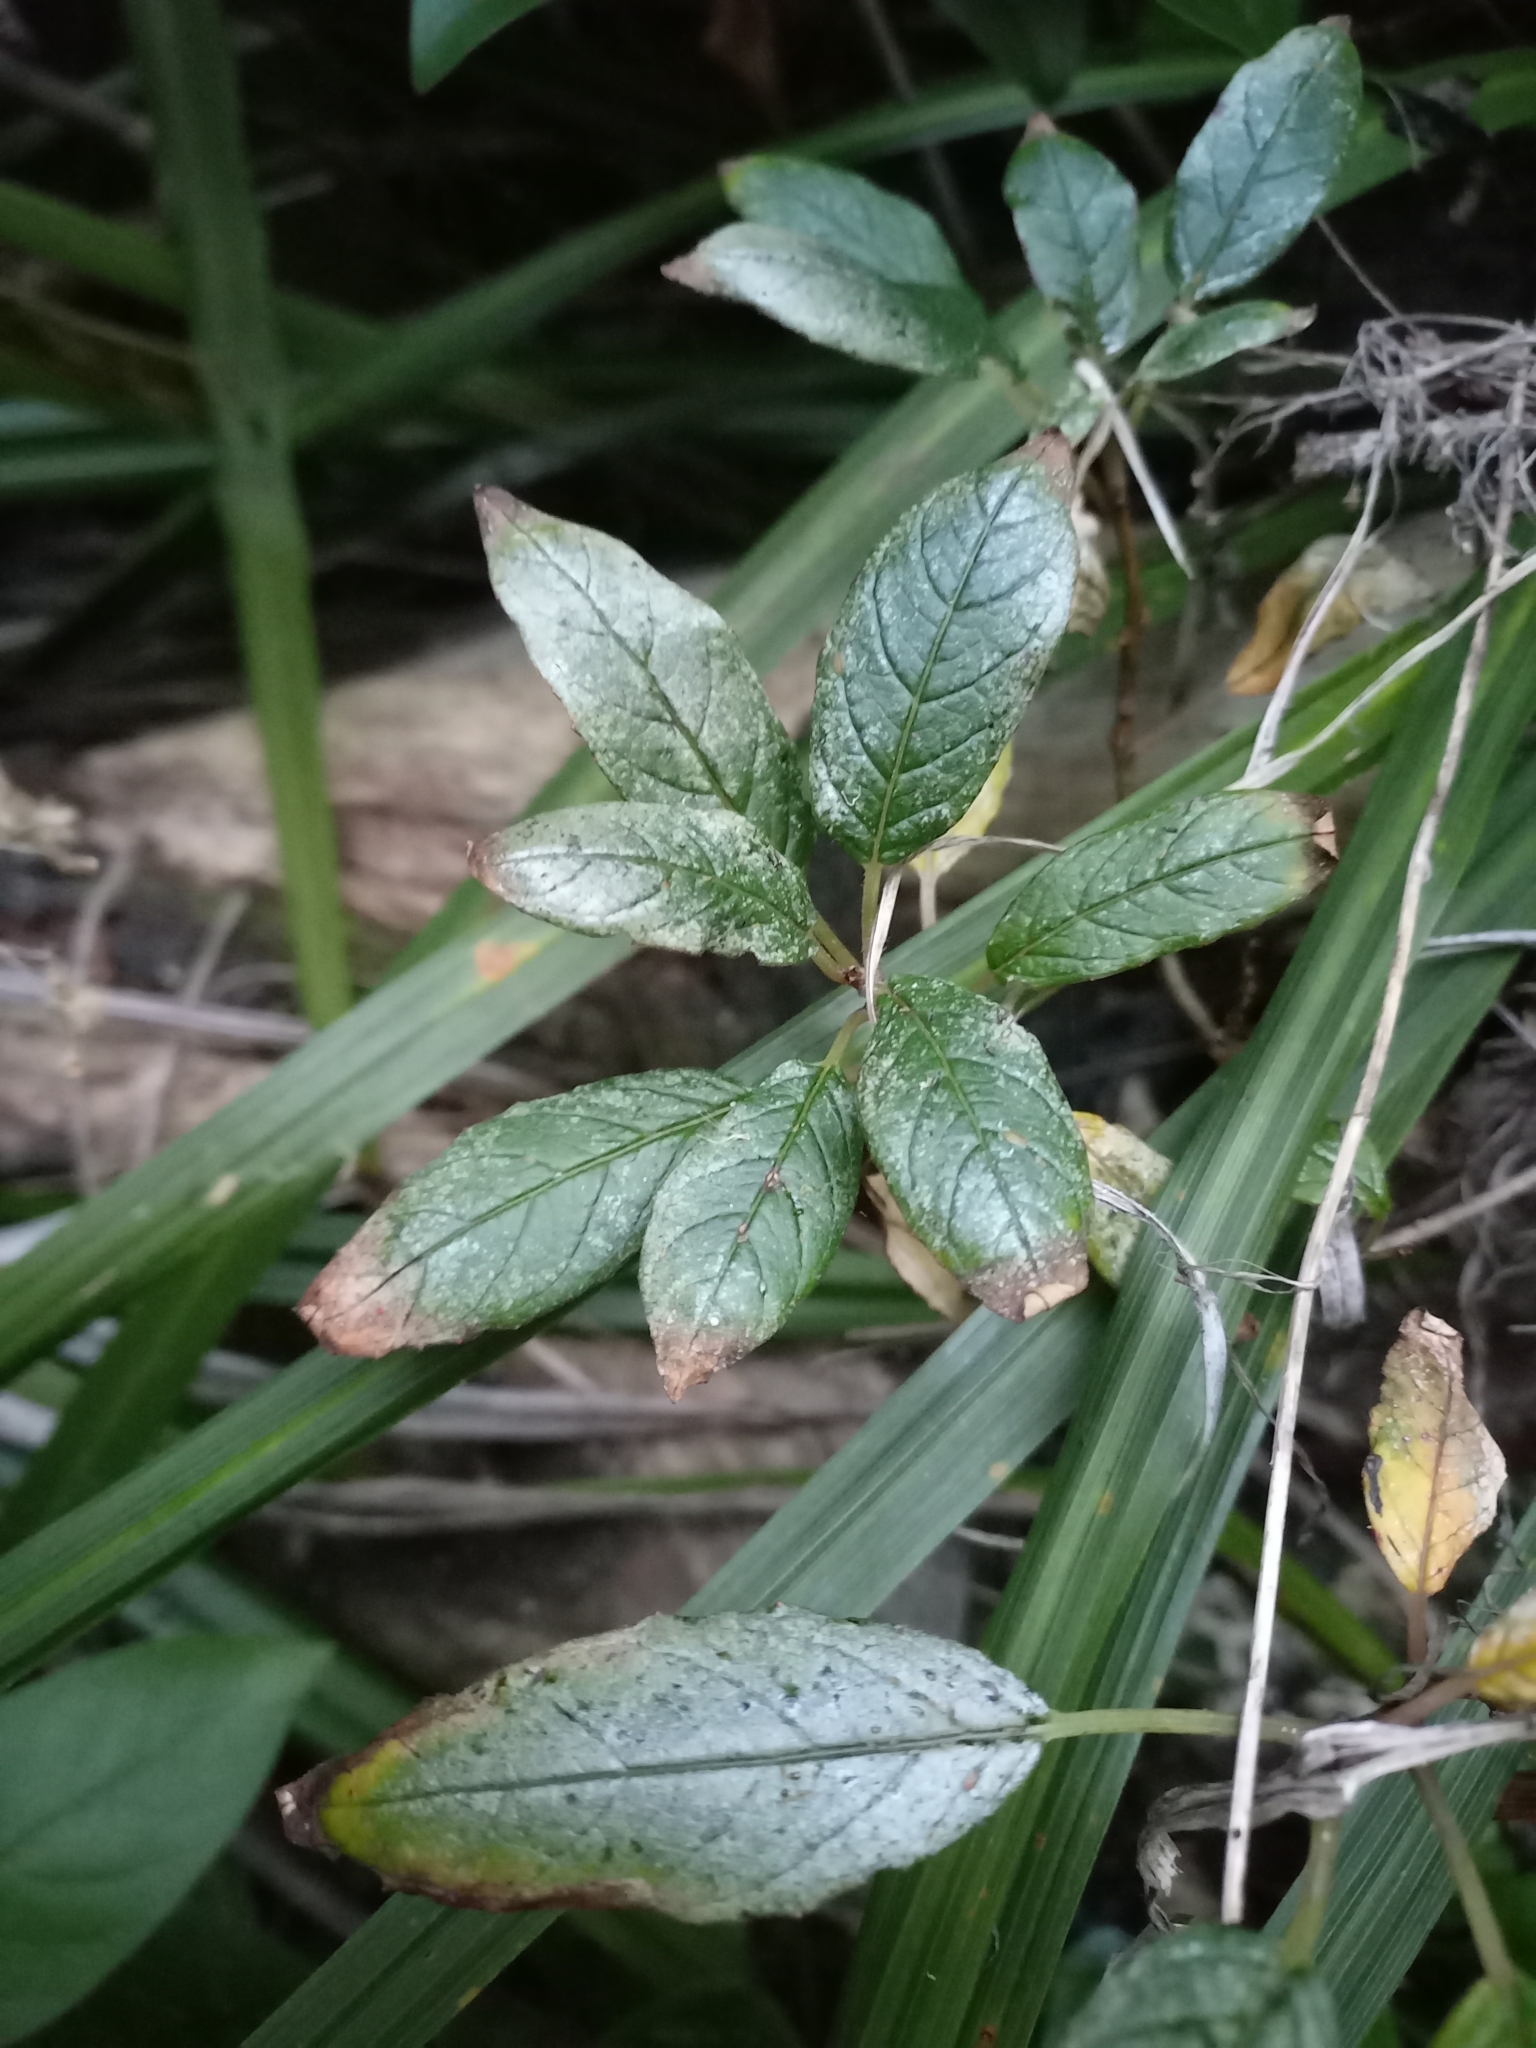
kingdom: Plantae
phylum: Tracheophyta
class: Magnoliopsida
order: Myrtales
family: Onagraceae
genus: Fuchsia
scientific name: Fuchsia excorticata
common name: Tree fuchsia
